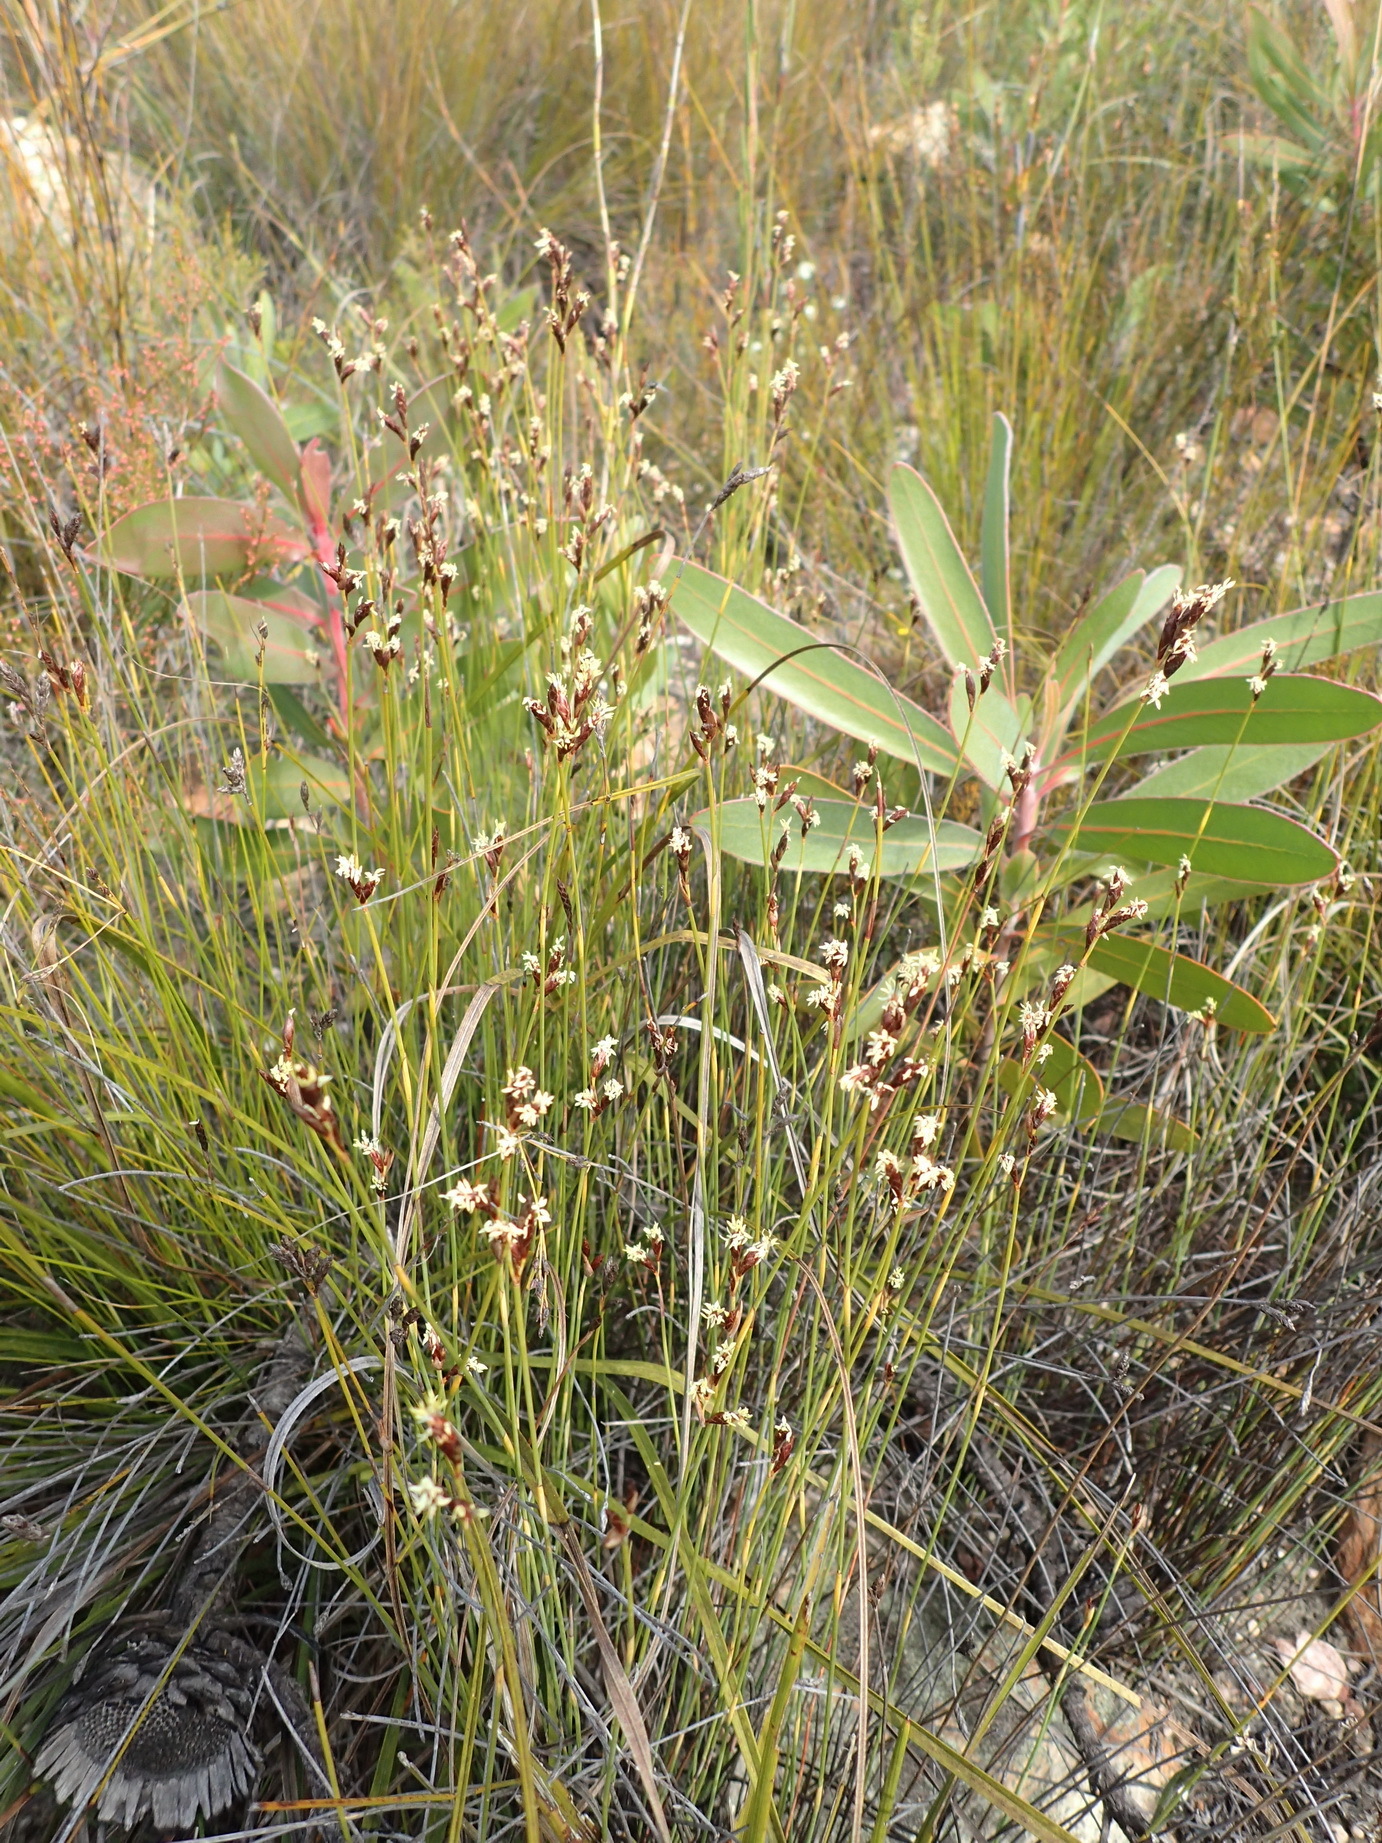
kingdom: Plantae
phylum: Tracheophyta
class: Liliopsida
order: Poales
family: Restionaceae
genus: Hypodiscus
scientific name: Hypodiscus striatus
